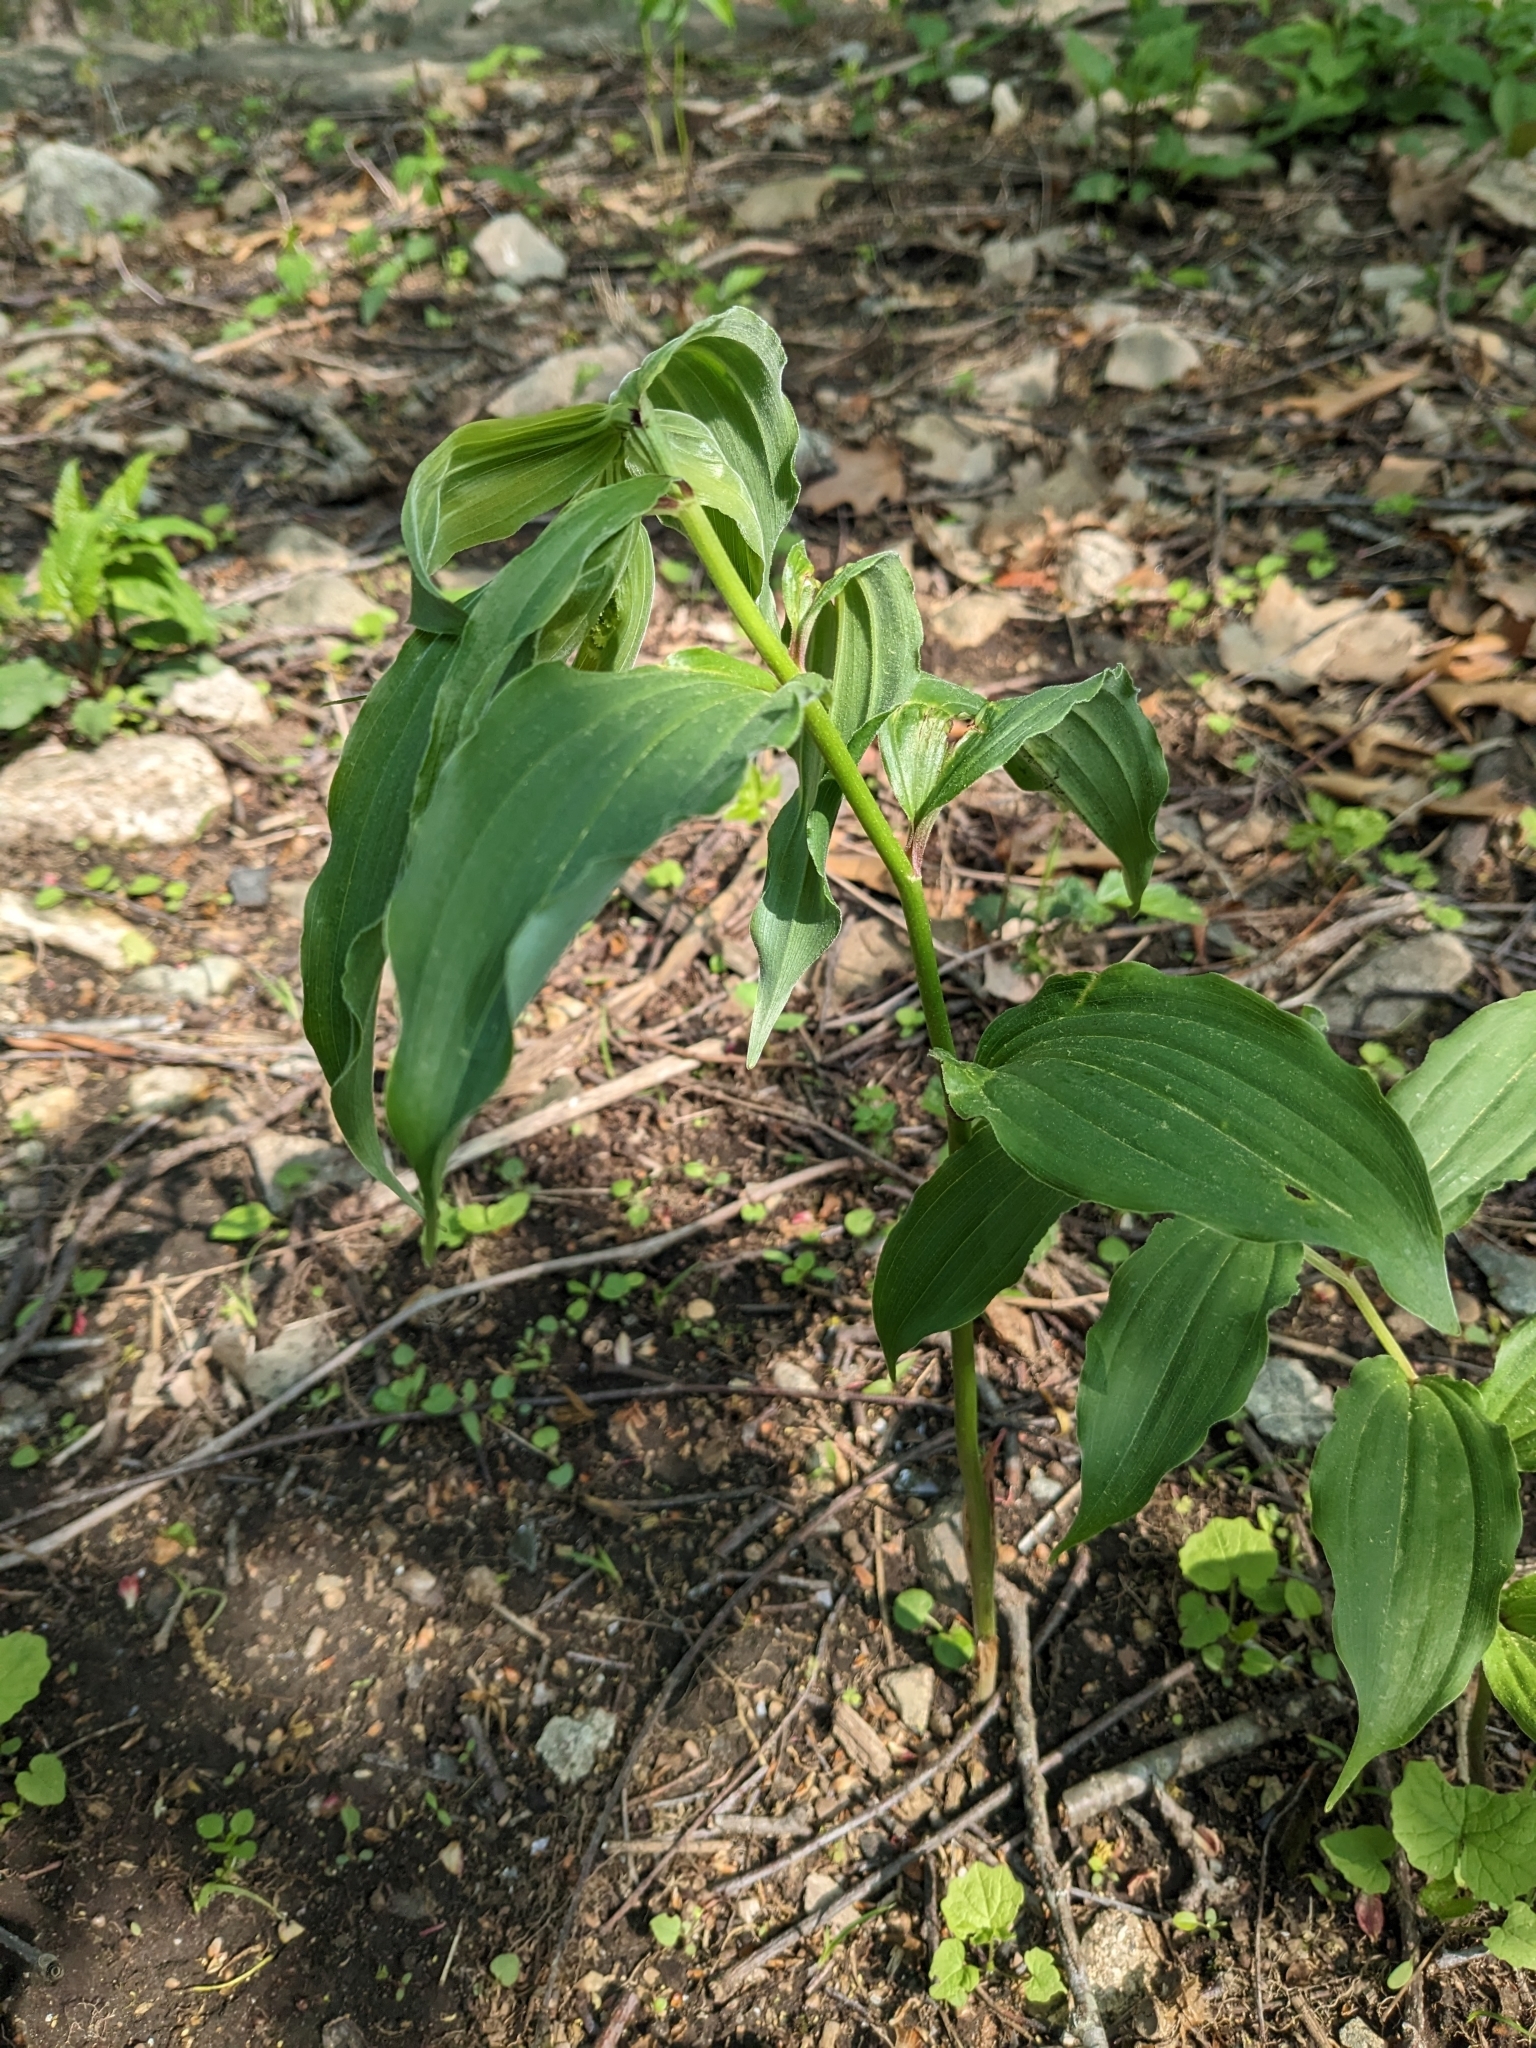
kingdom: Plantae
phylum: Tracheophyta
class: Liliopsida
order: Asparagales
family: Asparagaceae
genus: Maianthemum
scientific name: Maianthemum racemosum
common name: False spikenard
